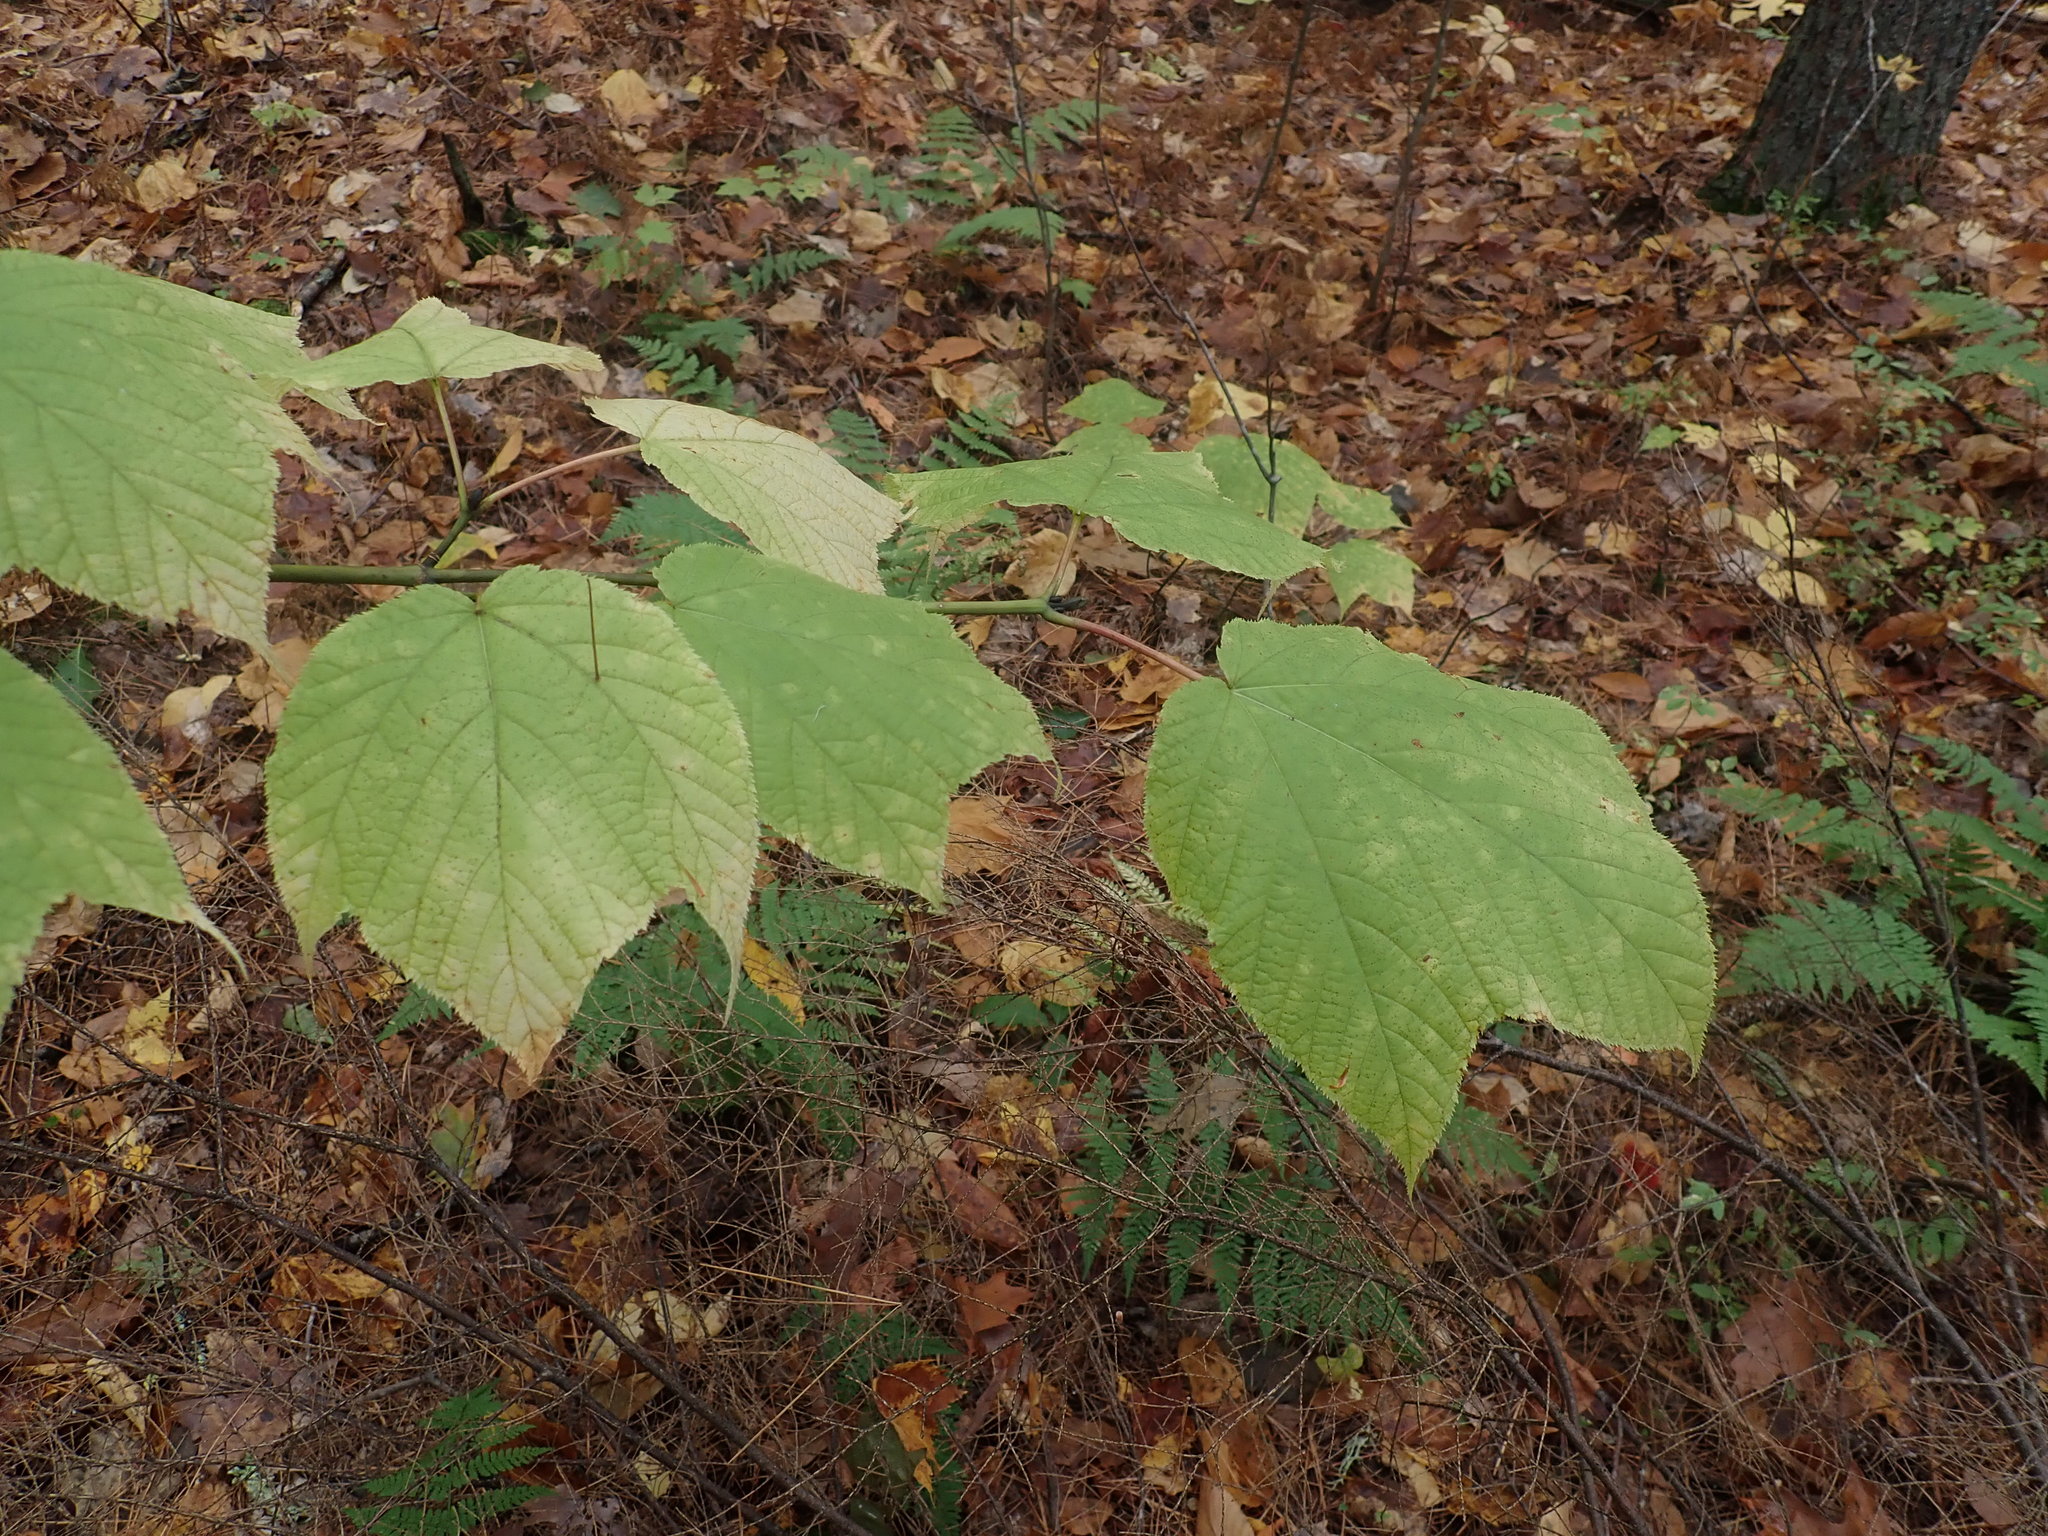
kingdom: Plantae
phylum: Tracheophyta
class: Magnoliopsida
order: Sapindales
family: Sapindaceae
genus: Acer
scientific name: Acer pensylvanicum
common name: Moosewood
